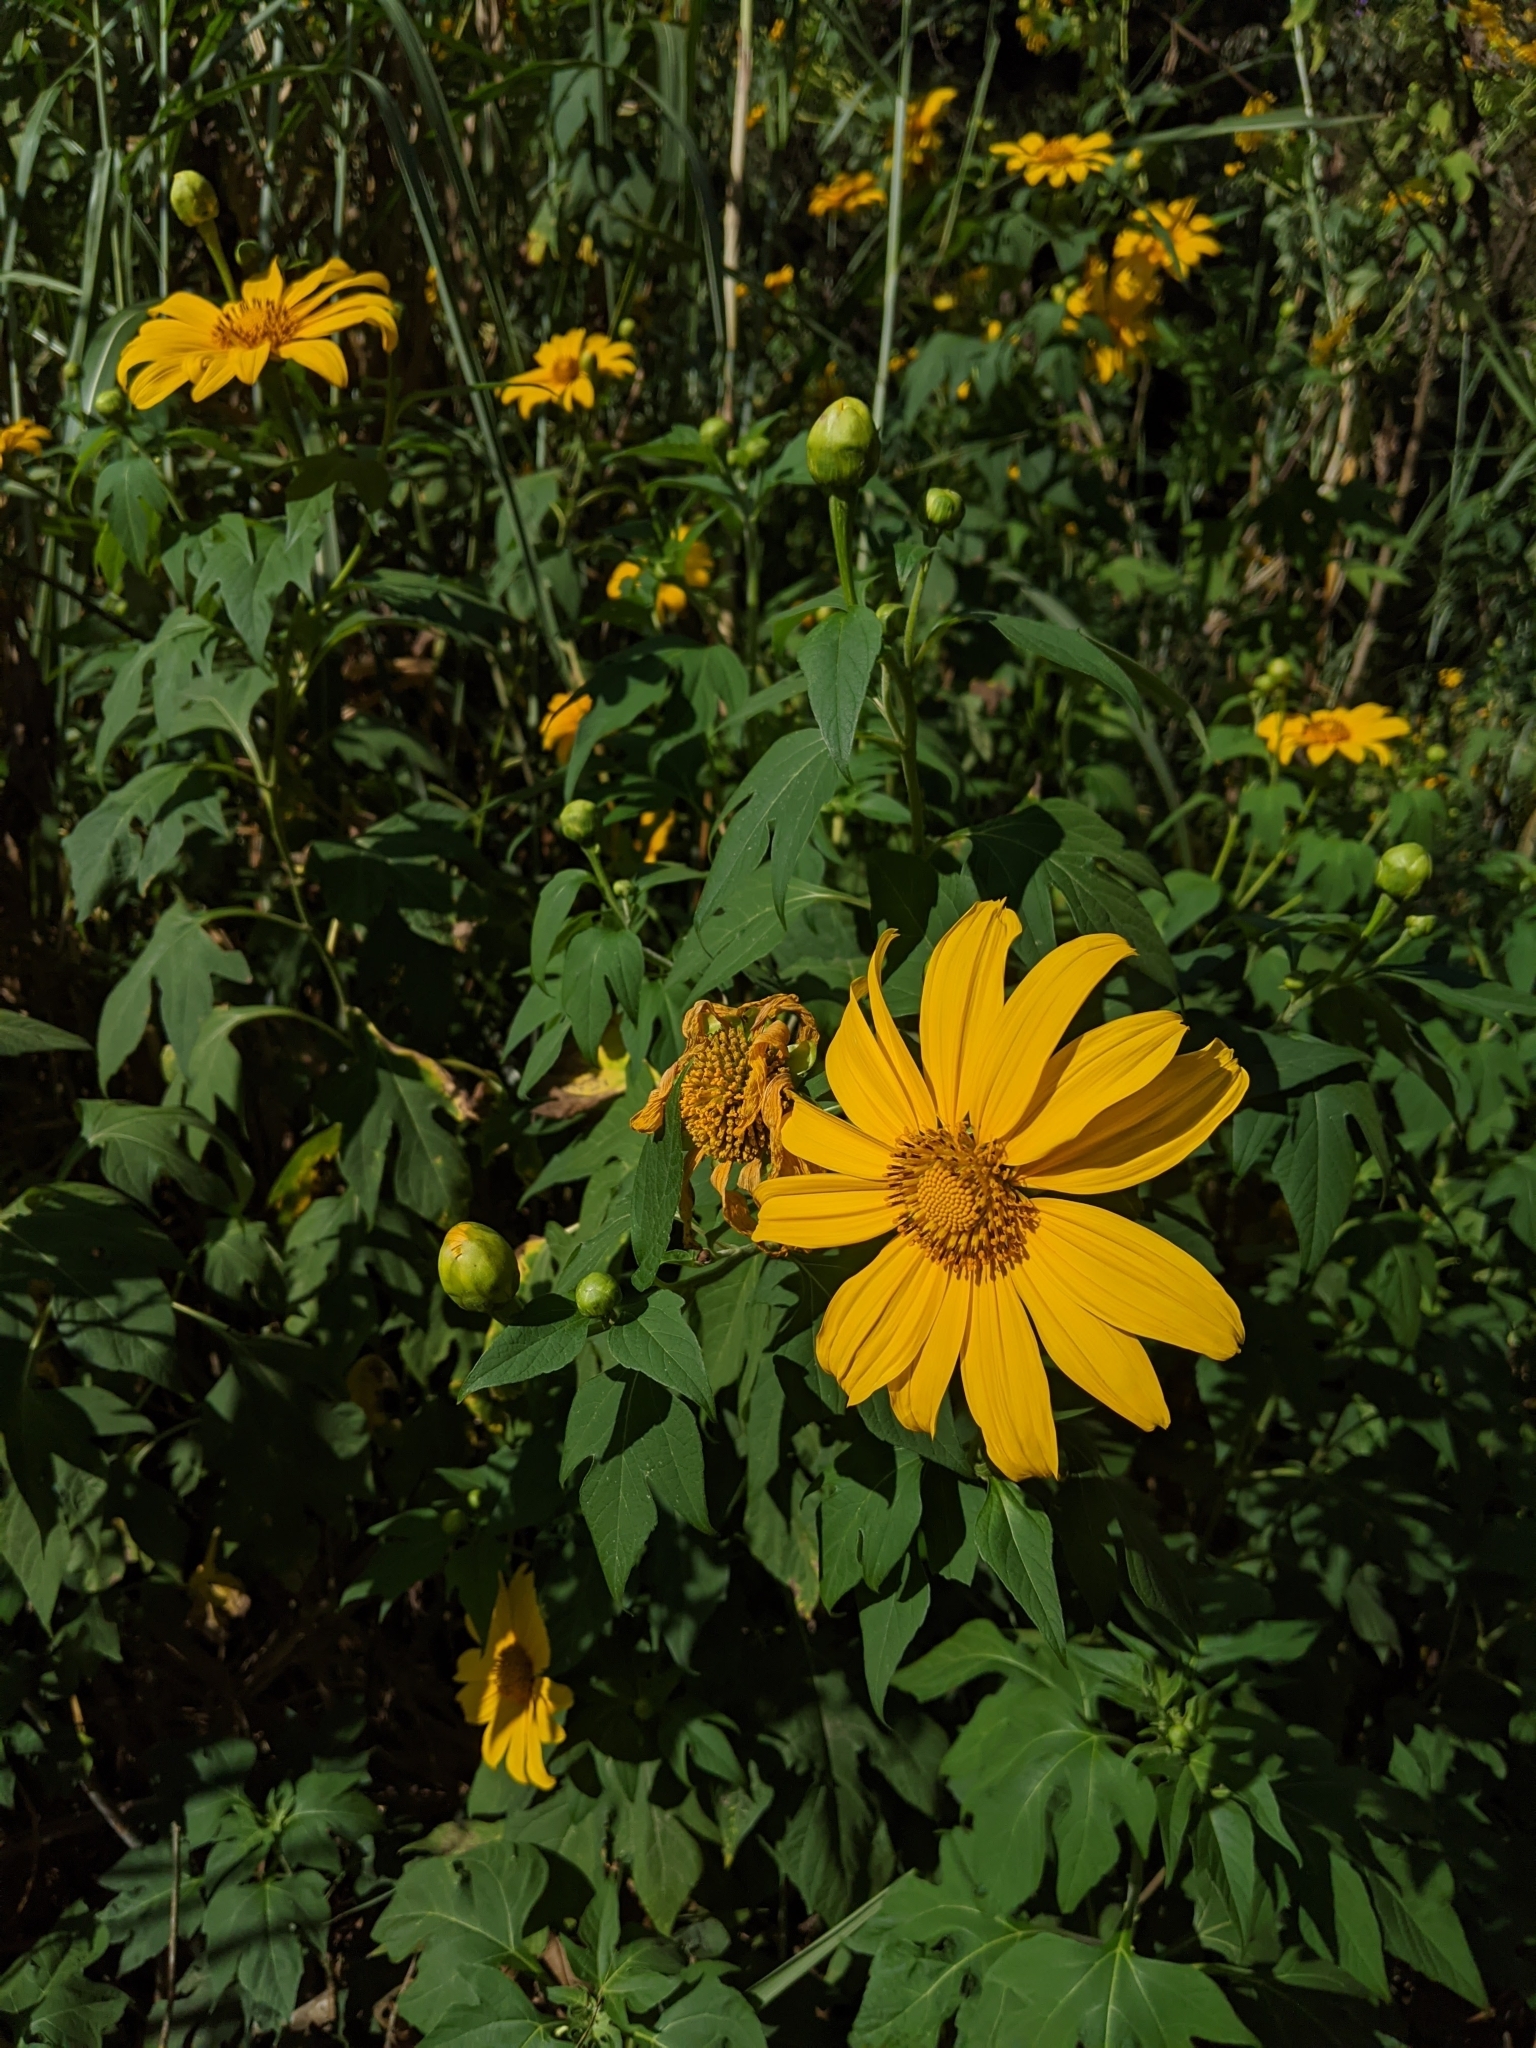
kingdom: Plantae
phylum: Tracheophyta
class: Magnoliopsida
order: Asterales
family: Asteraceae
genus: Tithonia
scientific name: Tithonia diversifolia
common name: Tree marigold
